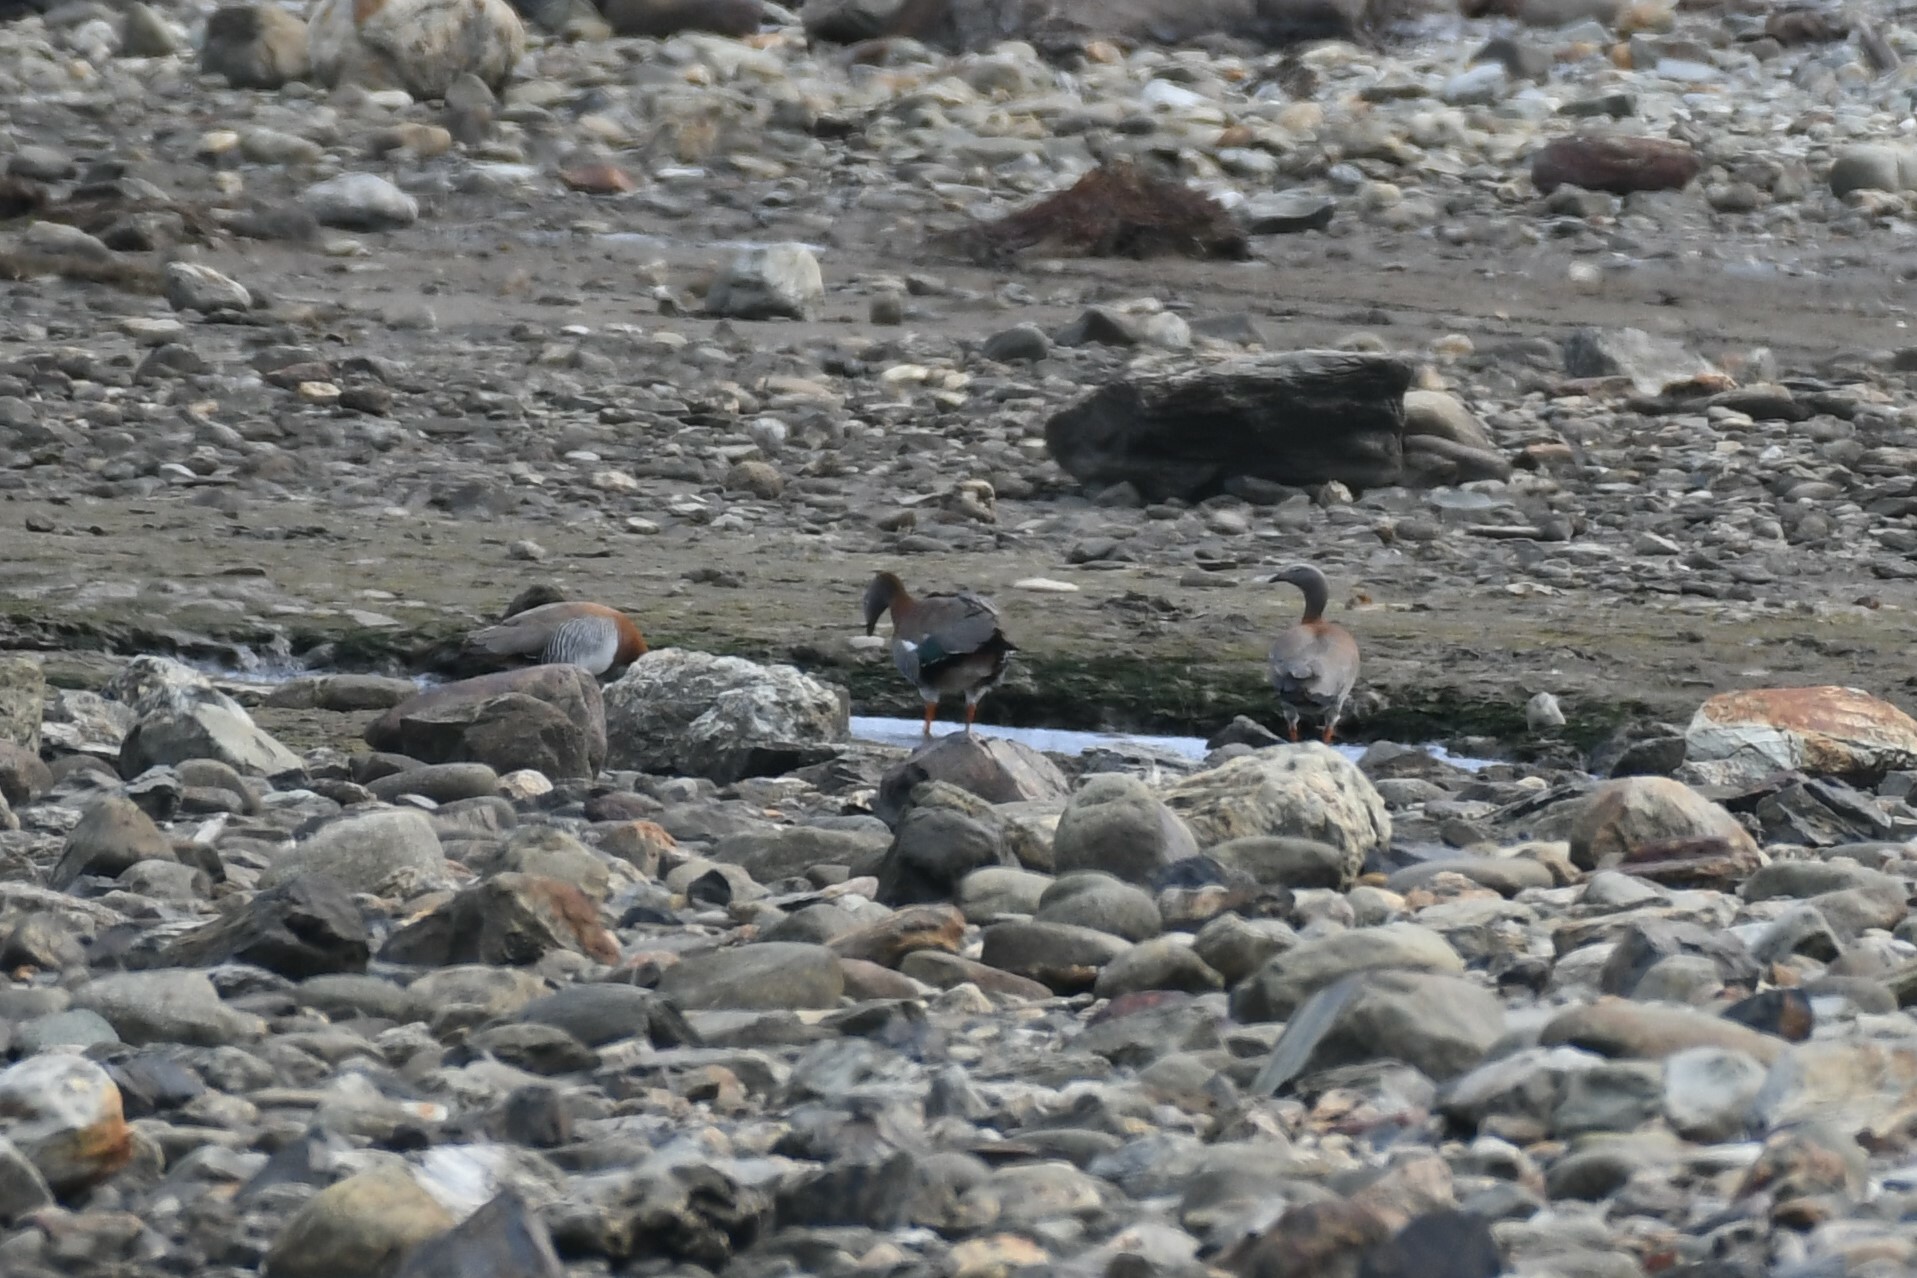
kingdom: Animalia
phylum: Chordata
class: Aves
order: Anseriformes
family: Anatidae
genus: Chloephaga
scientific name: Chloephaga poliocephala
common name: Ashy-headed goose
